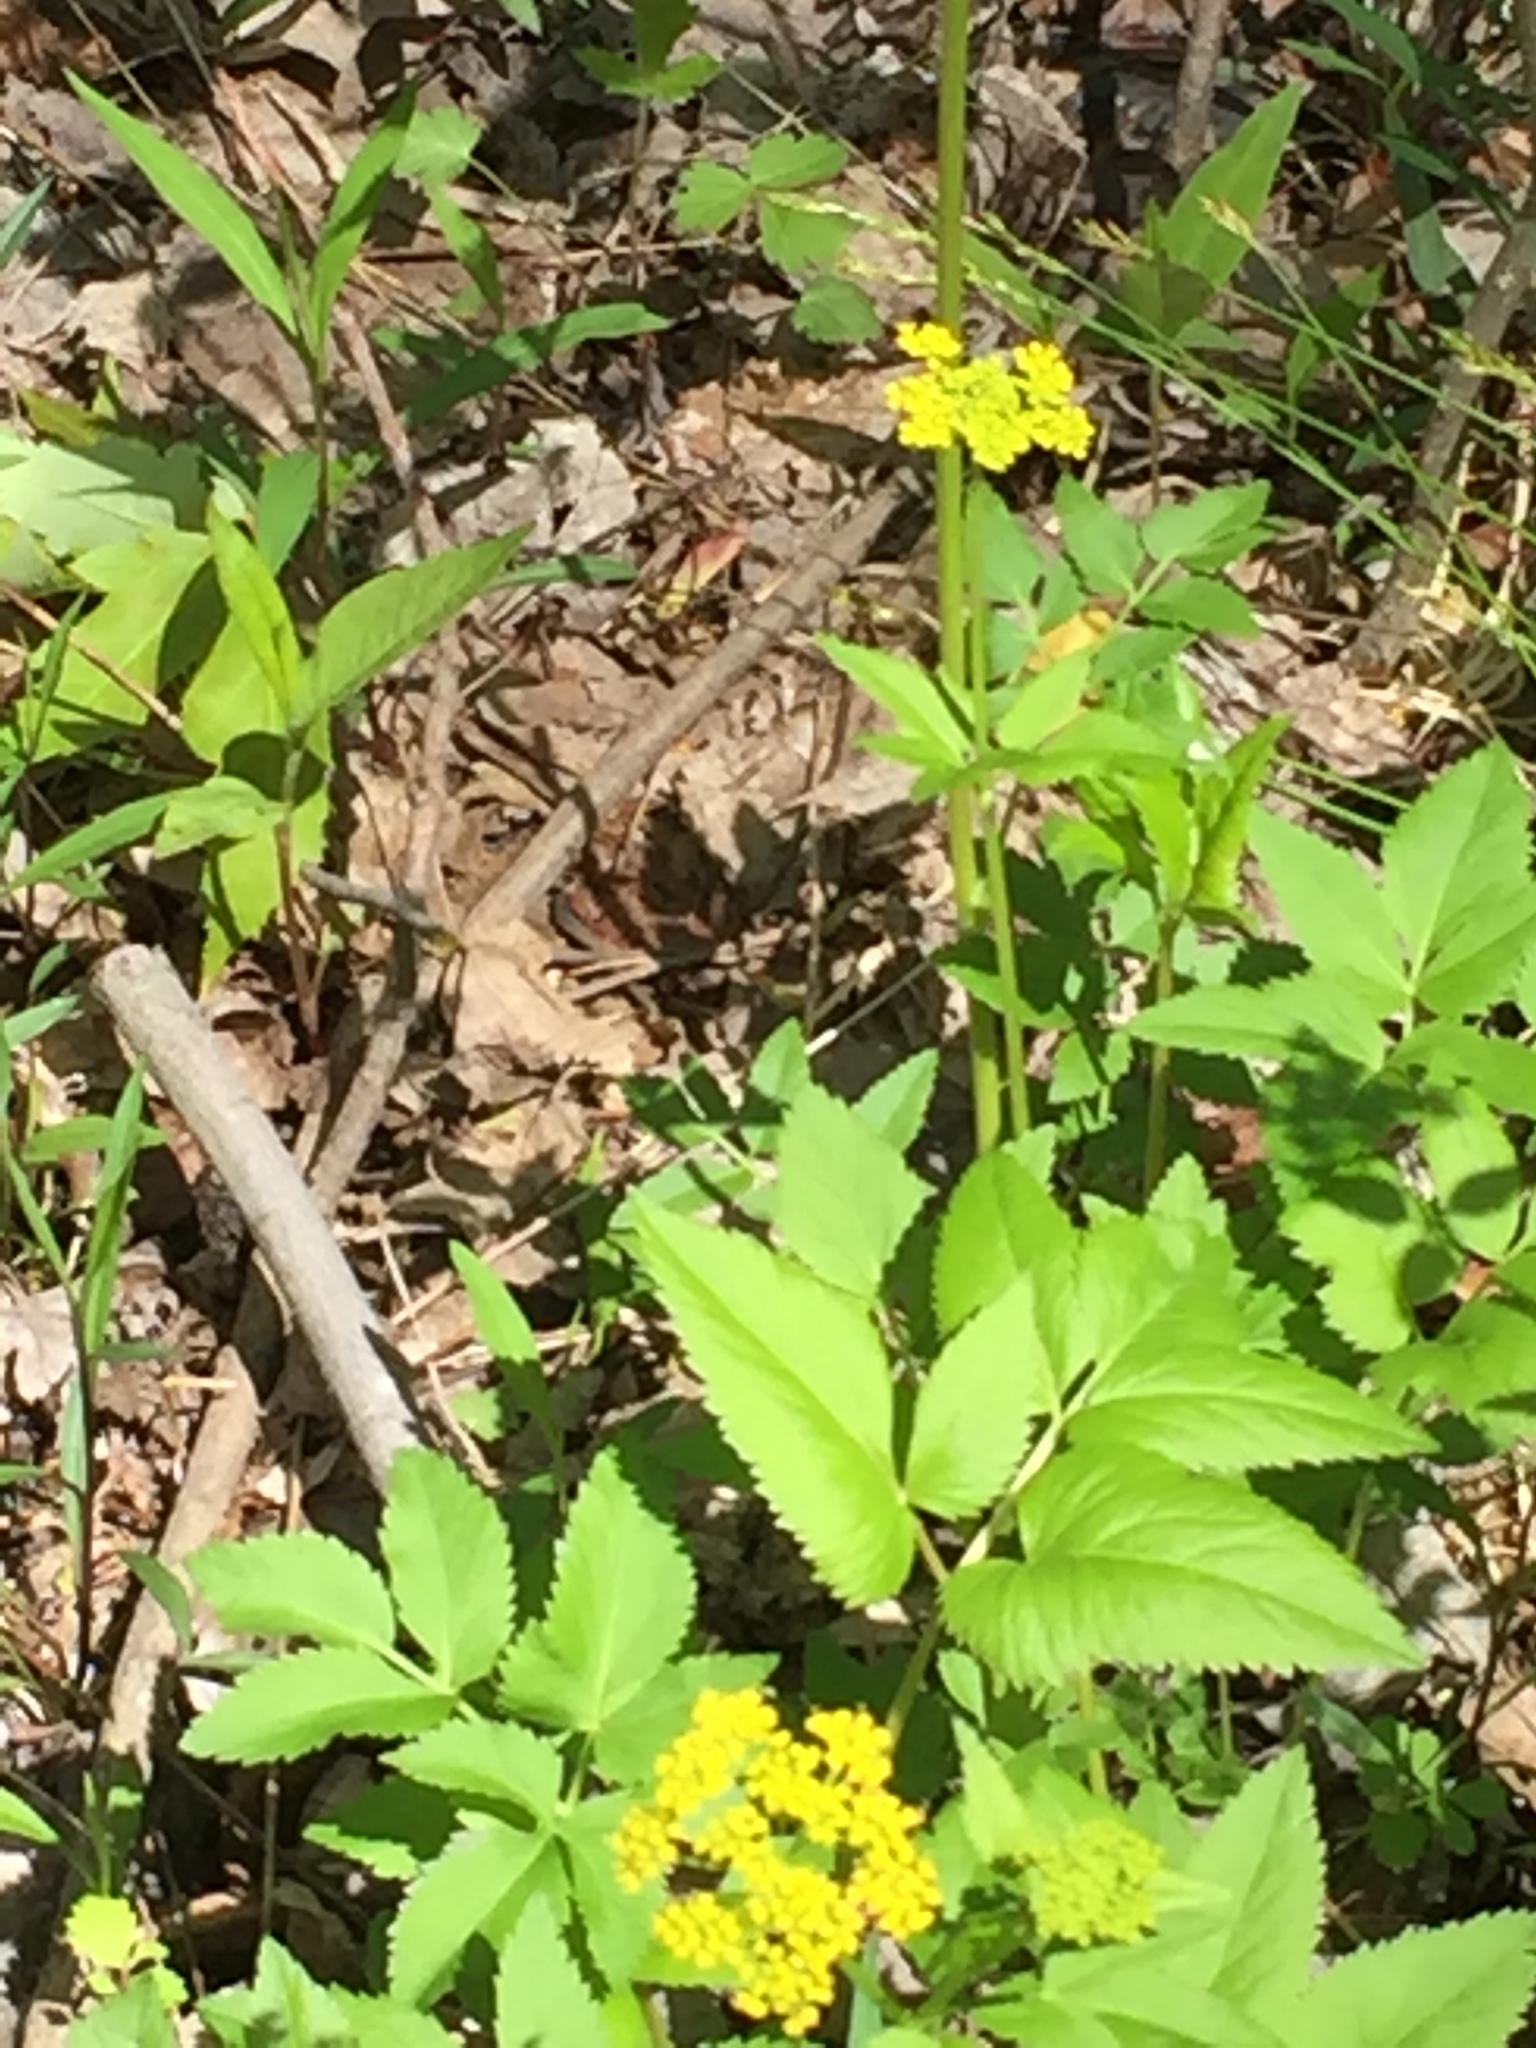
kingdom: Plantae
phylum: Tracheophyta
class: Magnoliopsida
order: Apiales
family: Apiaceae
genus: Zizia
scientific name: Zizia aurea
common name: Golden alexanders
